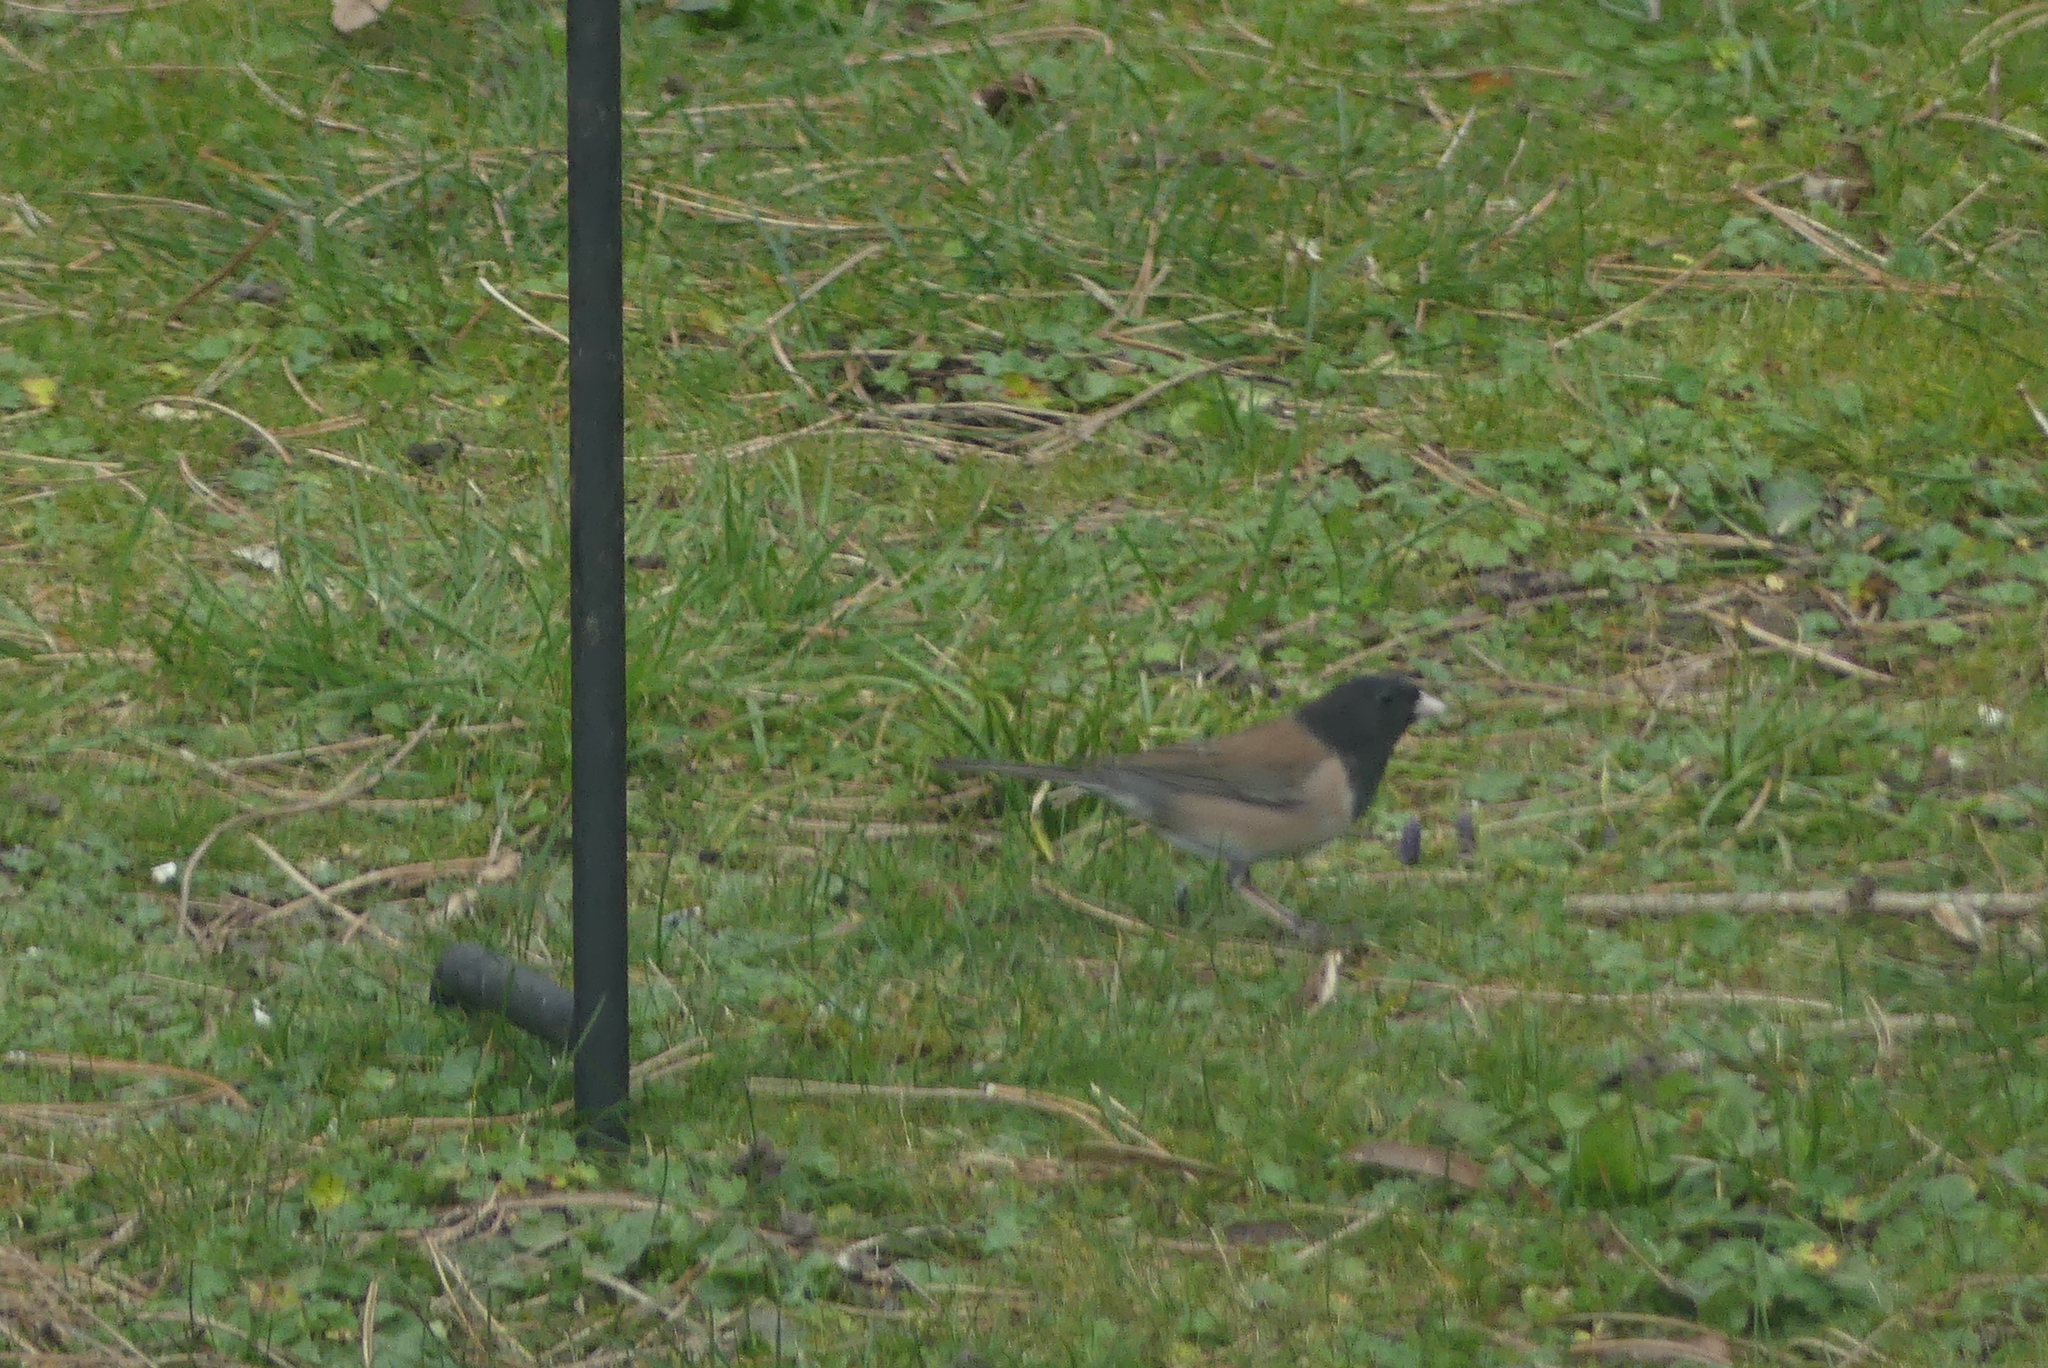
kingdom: Animalia
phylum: Chordata
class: Aves
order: Passeriformes
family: Passerellidae
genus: Junco
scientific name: Junco hyemalis
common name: Dark-eyed junco
